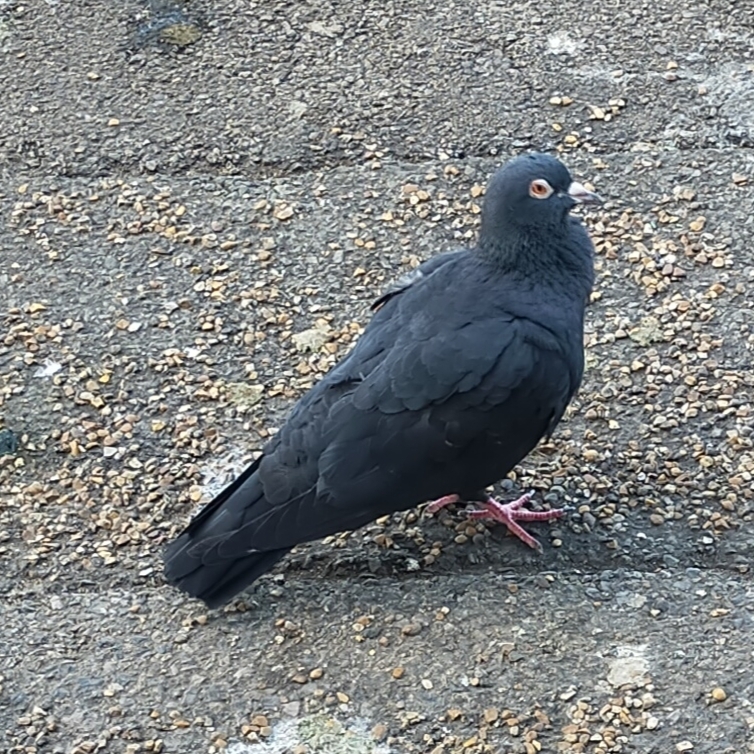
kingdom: Animalia
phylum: Chordata
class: Aves
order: Columbiformes
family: Columbidae
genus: Columba
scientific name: Columba livia
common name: Rock pigeon
